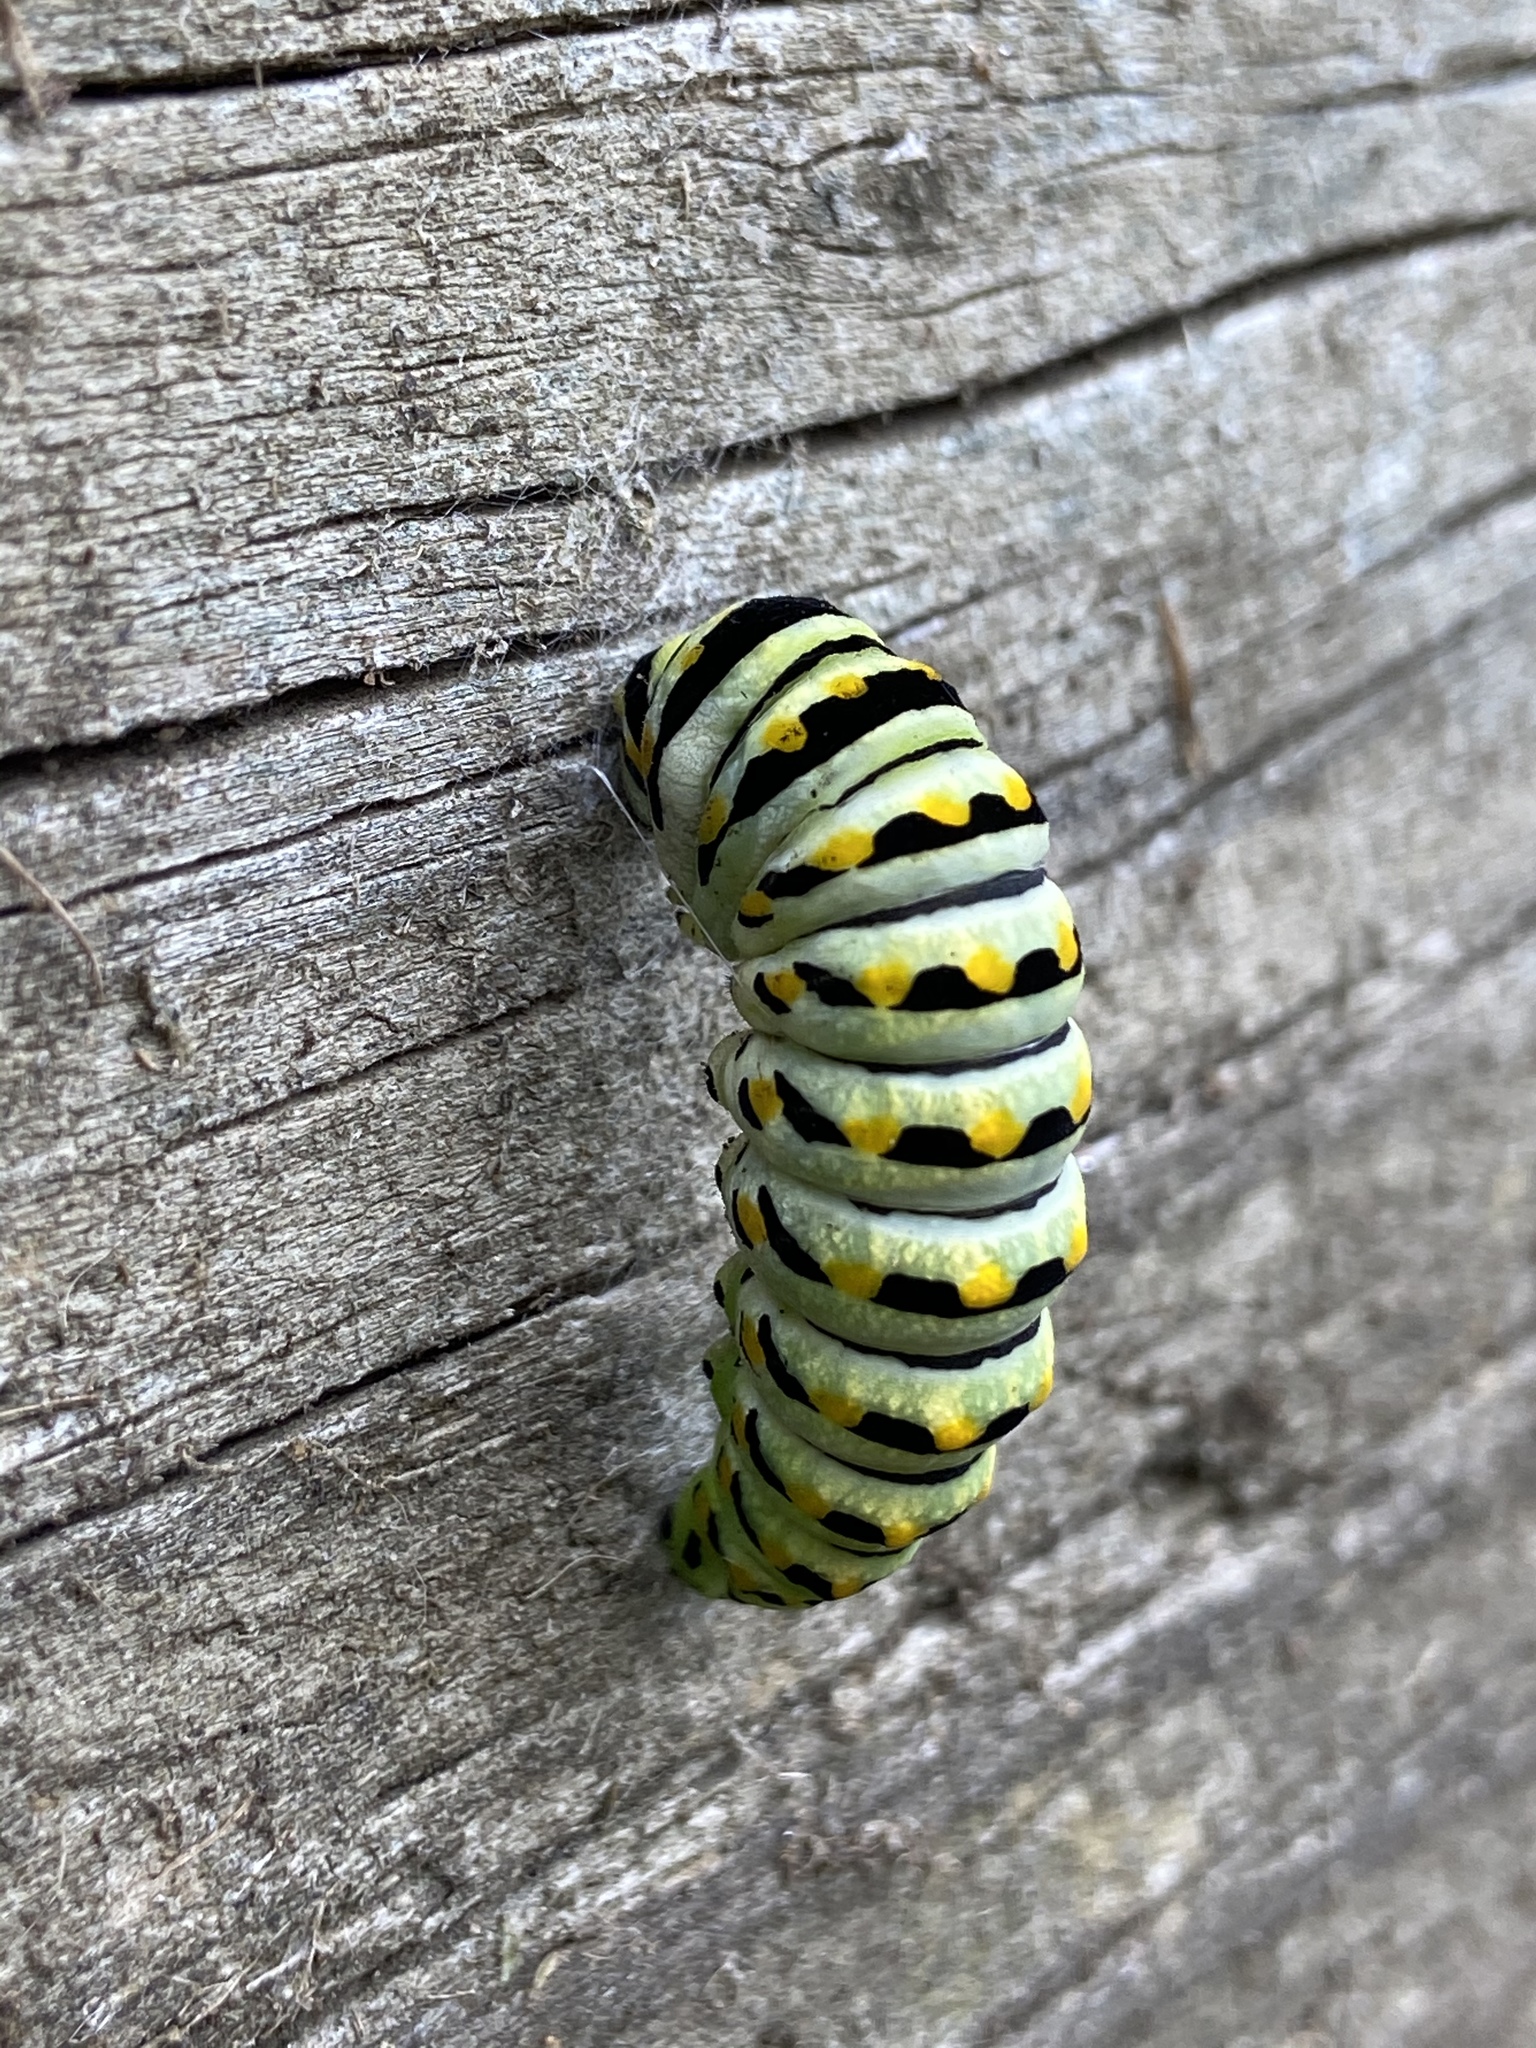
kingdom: Animalia
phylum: Arthropoda
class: Insecta
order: Lepidoptera
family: Papilionidae
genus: Papilio
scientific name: Papilio polyxenes
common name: Black swallowtail
